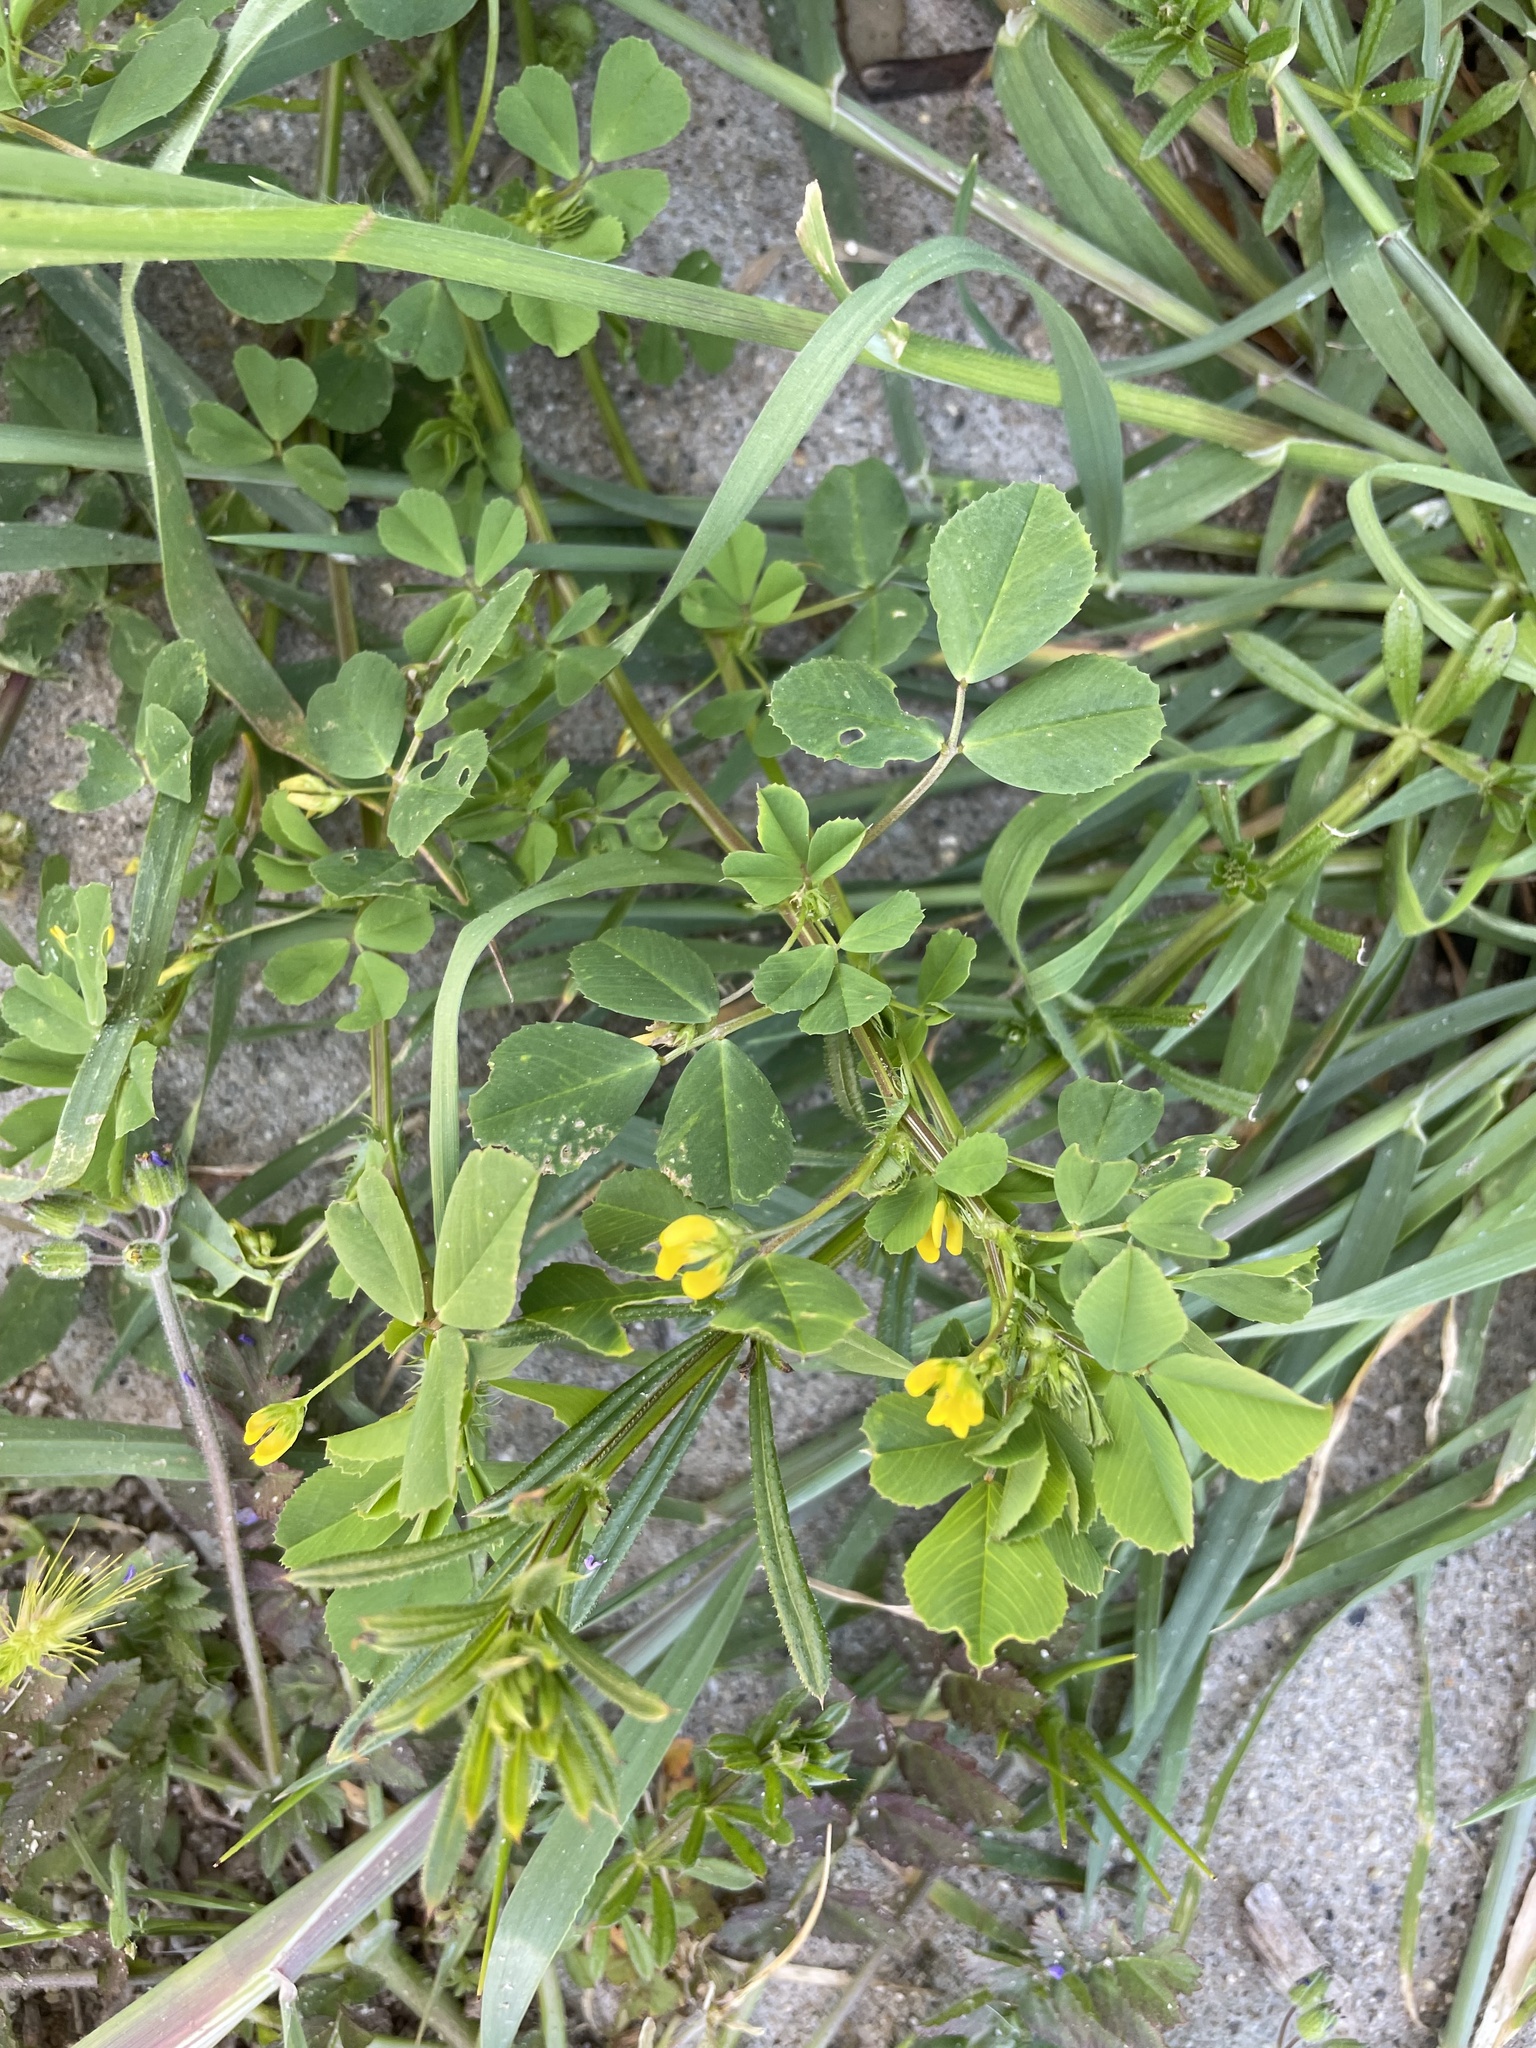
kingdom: Plantae
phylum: Tracheophyta
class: Magnoliopsida
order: Fabales
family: Fabaceae
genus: Medicago
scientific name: Medicago polymorpha
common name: Burclover
